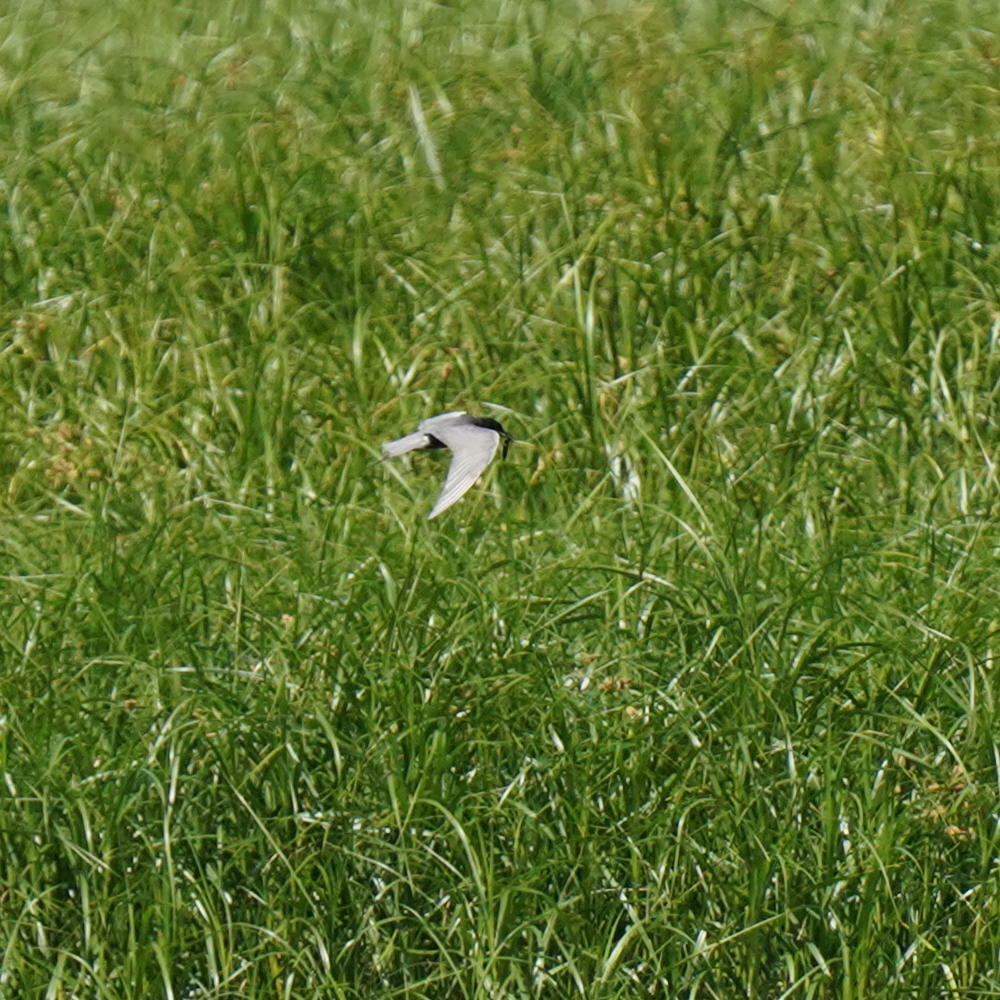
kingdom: Animalia
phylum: Chordata
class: Aves
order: Charadriiformes
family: Laridae
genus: Chlidonias
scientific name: Chlidonias niger
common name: Black tern
